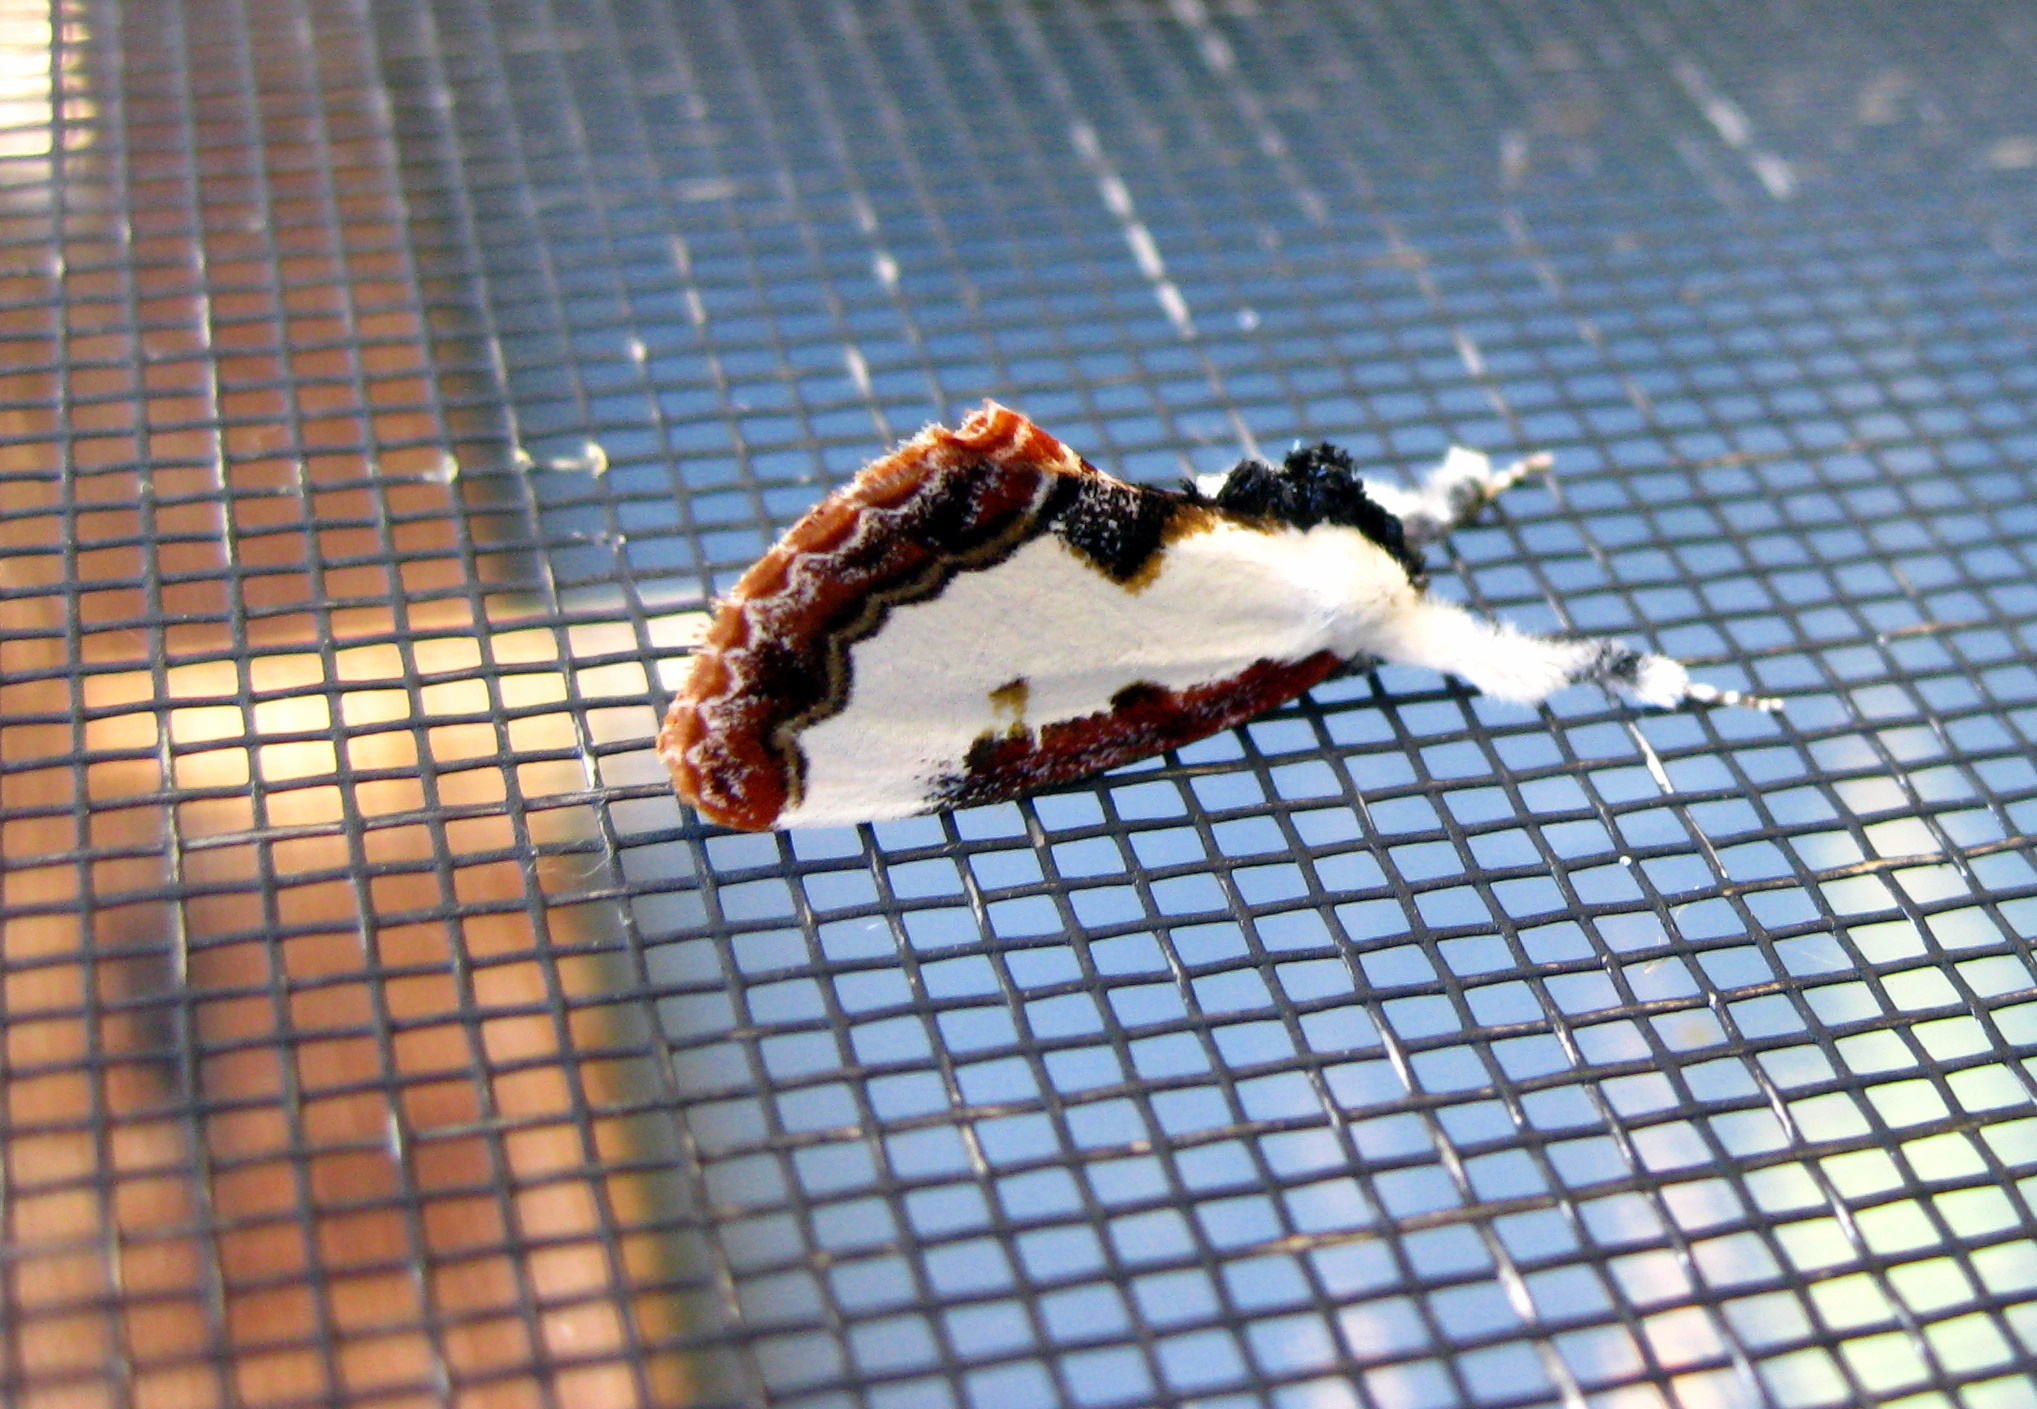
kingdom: Animalia
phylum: Arthropoda
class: Insecta
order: Lepidoptera
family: Noctuidae
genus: Eudryas
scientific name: Eudryas unio
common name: Pearly wood-nymph
